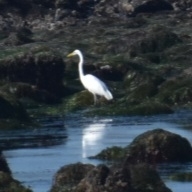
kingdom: Animalia
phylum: Chordata
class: Aves
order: Pelecaniformes
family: Ardeidae
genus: Ardea
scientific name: Ardea alba
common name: Great egret
